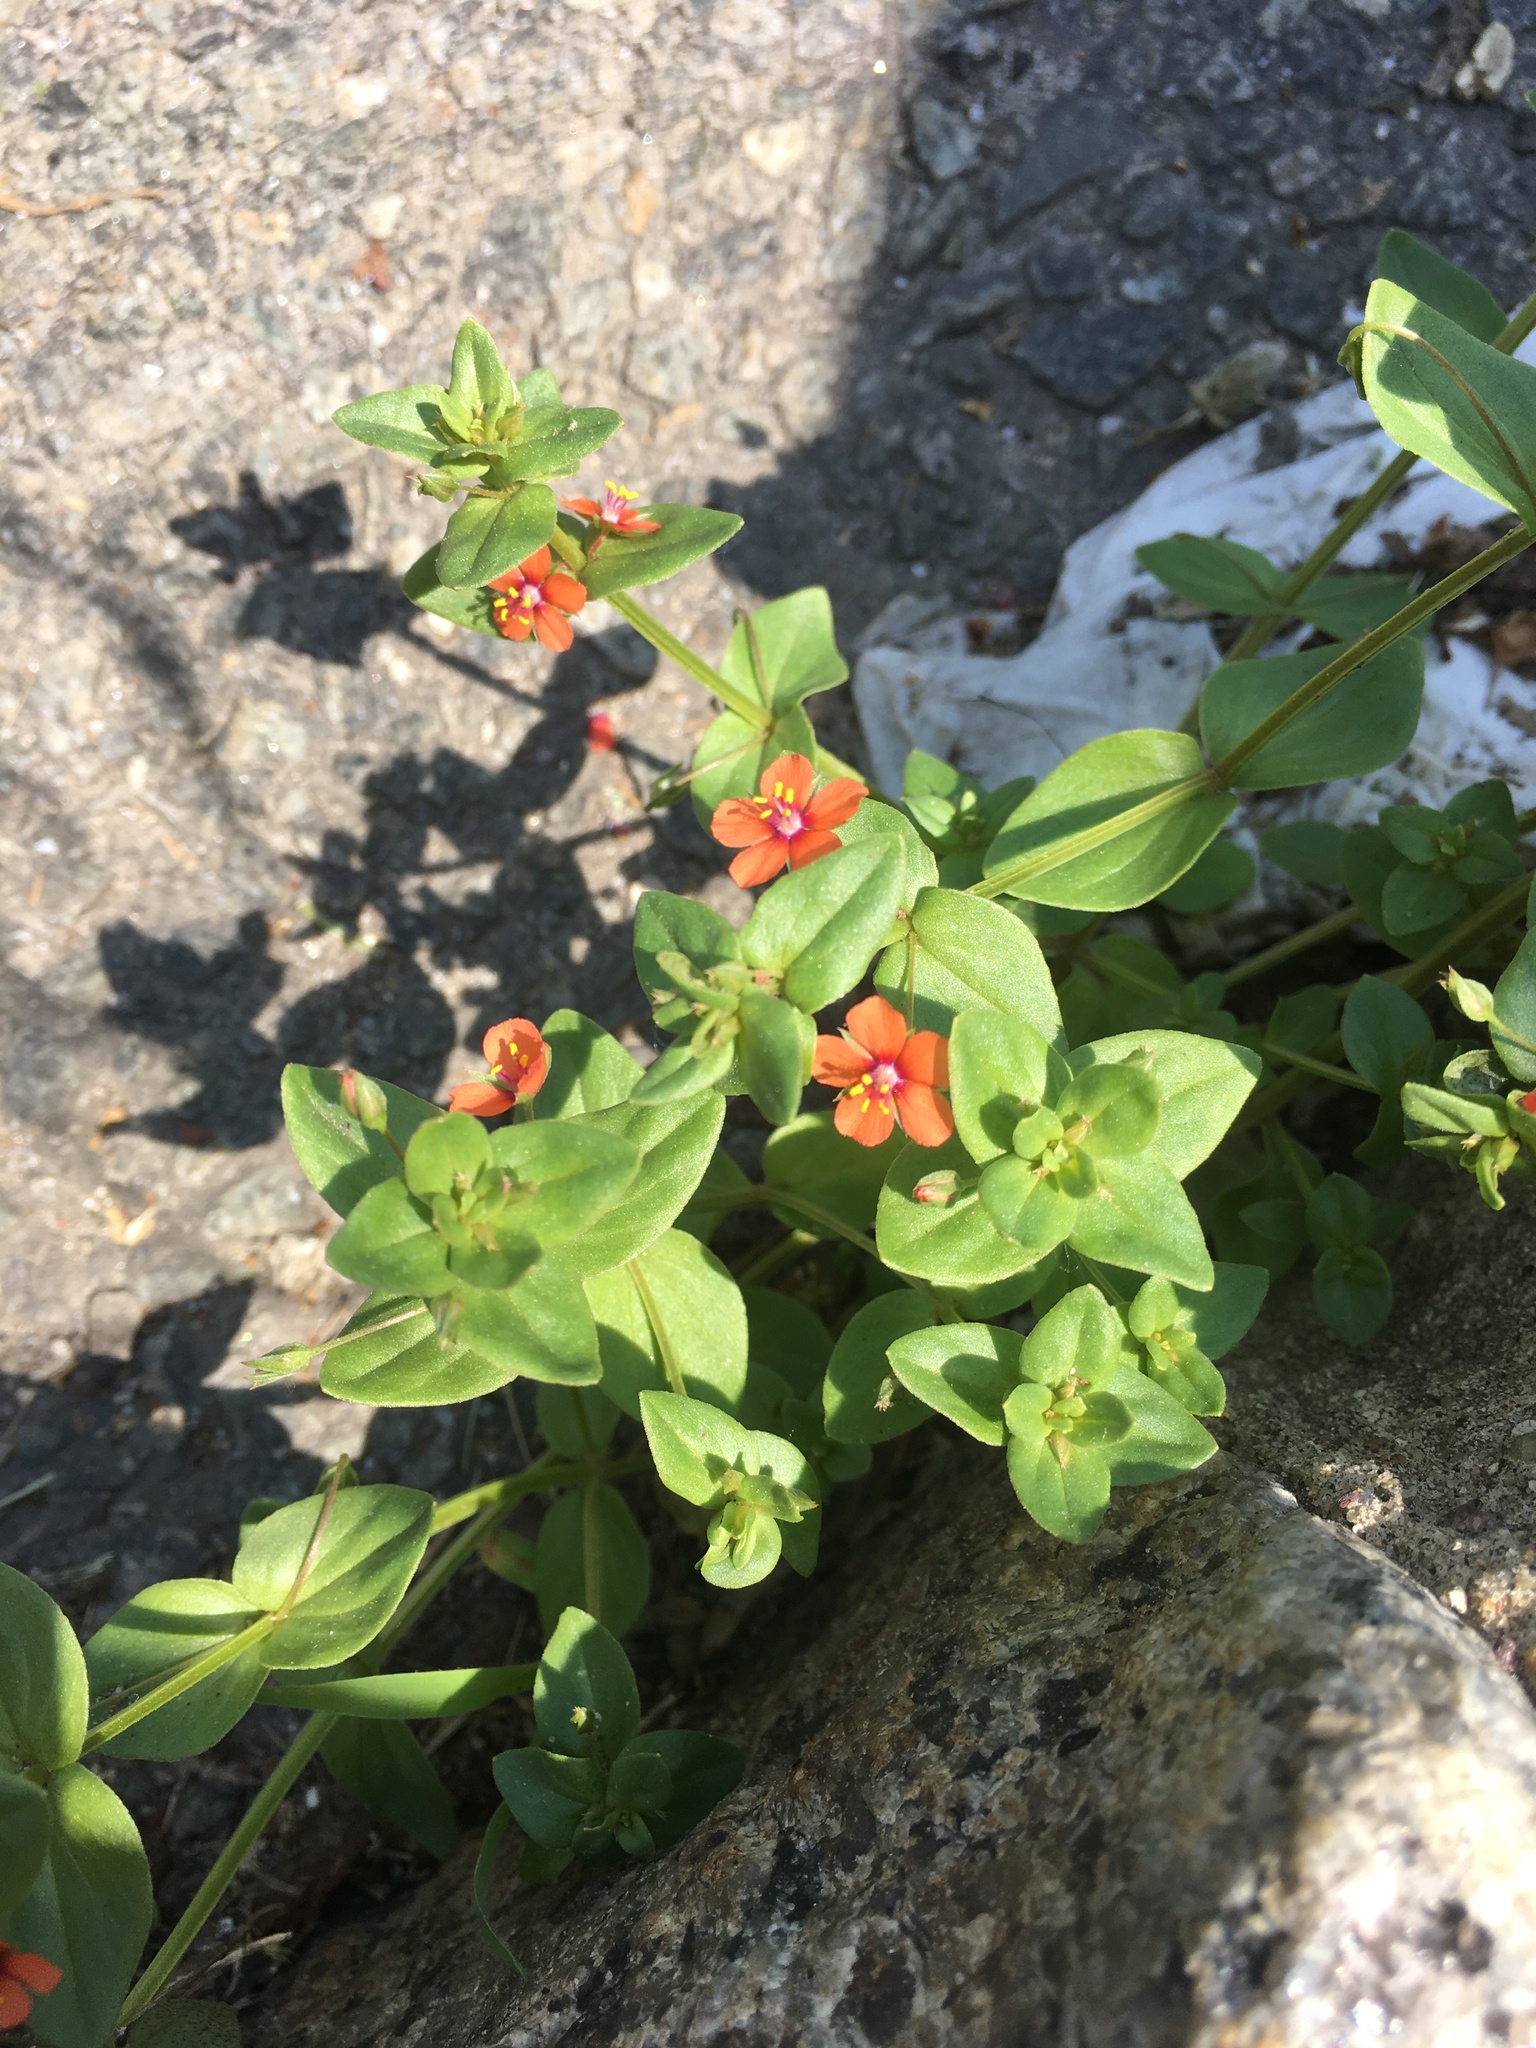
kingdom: Plantae
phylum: Tracheophyta
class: Magnoliopsida
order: Ericales
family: Primulaceae
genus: Lysimachia
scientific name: Lysimachia arvensis
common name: Scarlet pimpernel
